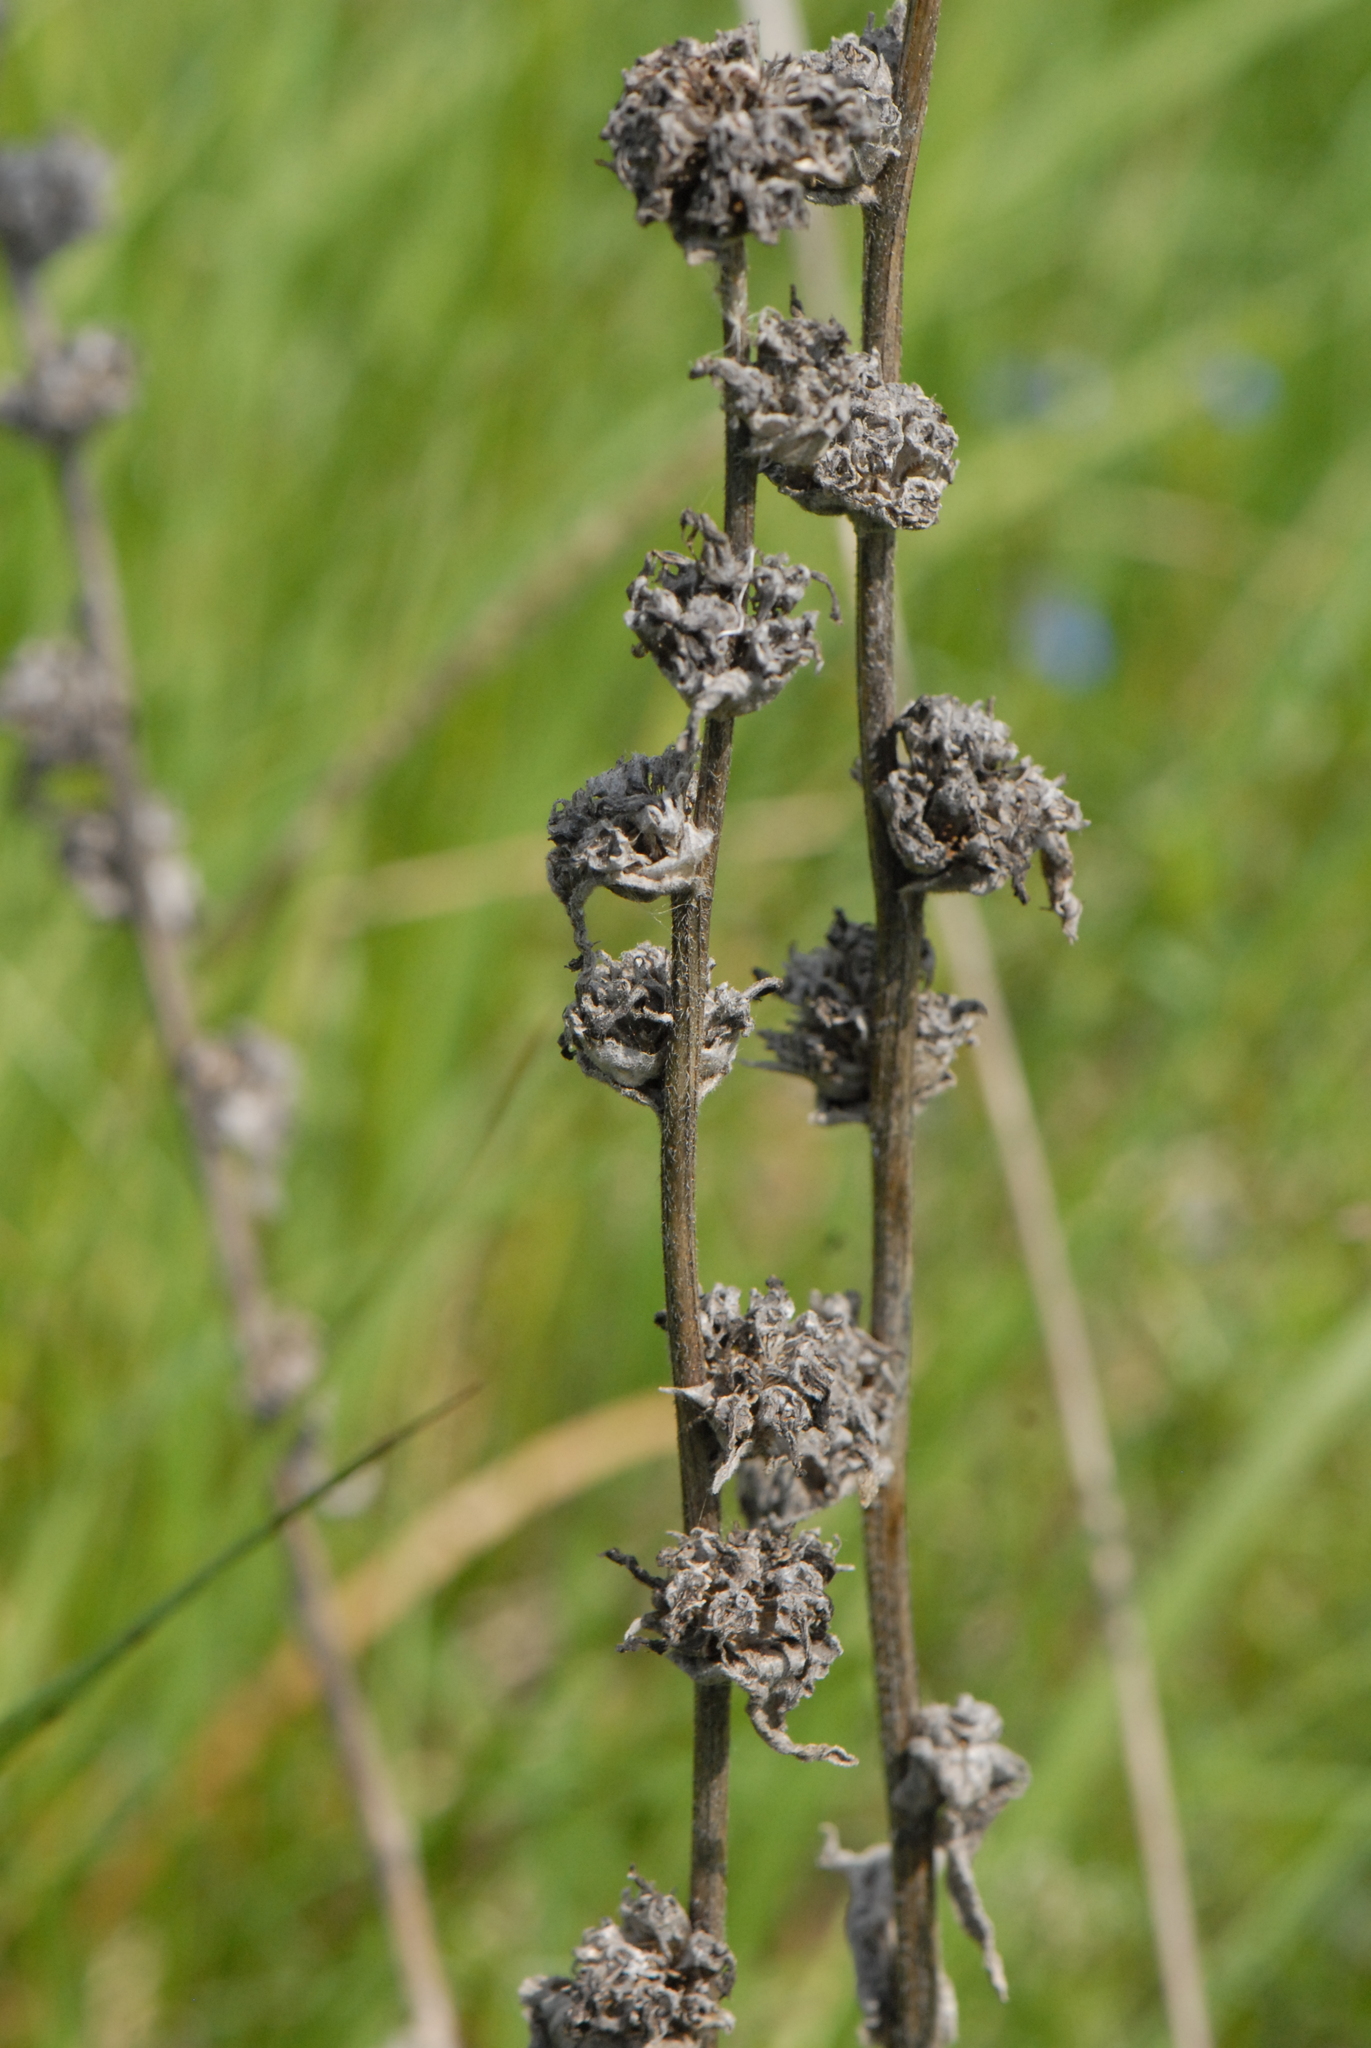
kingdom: Plantae
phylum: Tracheophyta
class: Magnoliopsida
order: Asterales
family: Asteraceae
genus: Cichorium
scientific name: Cichorium intybus
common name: Chicory
